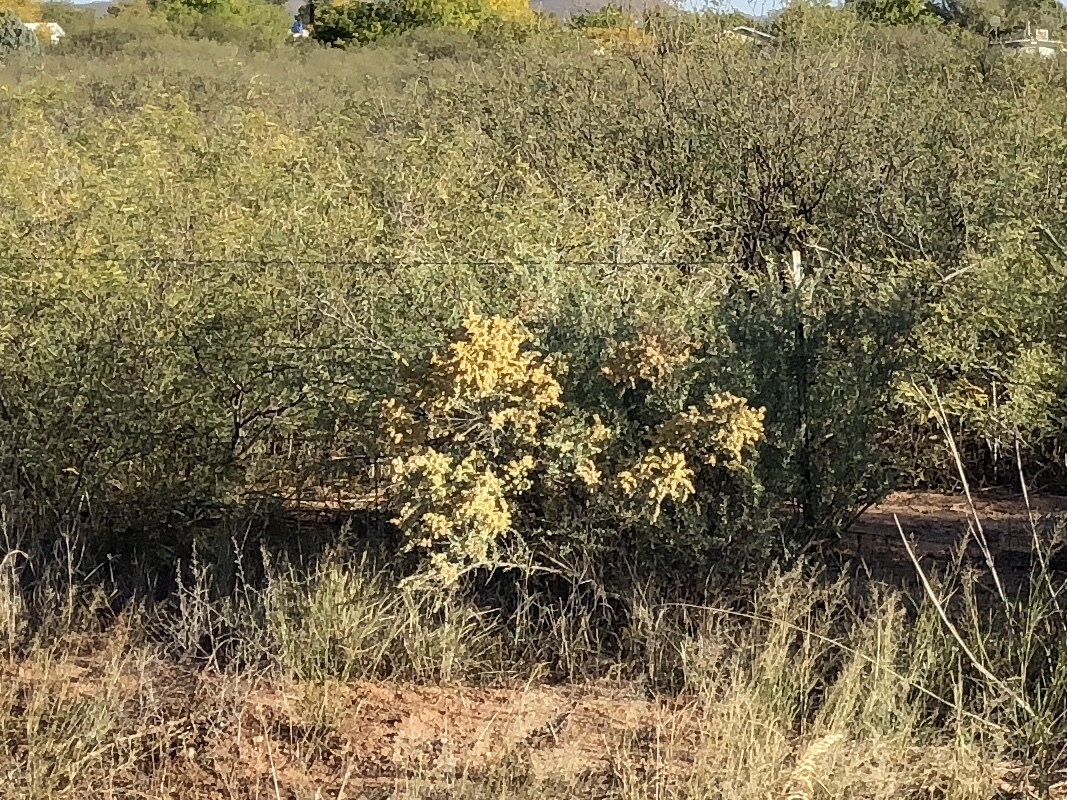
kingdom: Plantae
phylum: Tracheophyta
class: Magnoliopsida
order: Caryophyllales
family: Amaranthaceae
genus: Atriplex
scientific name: Atriplex canescens
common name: Four-wing saltbush
